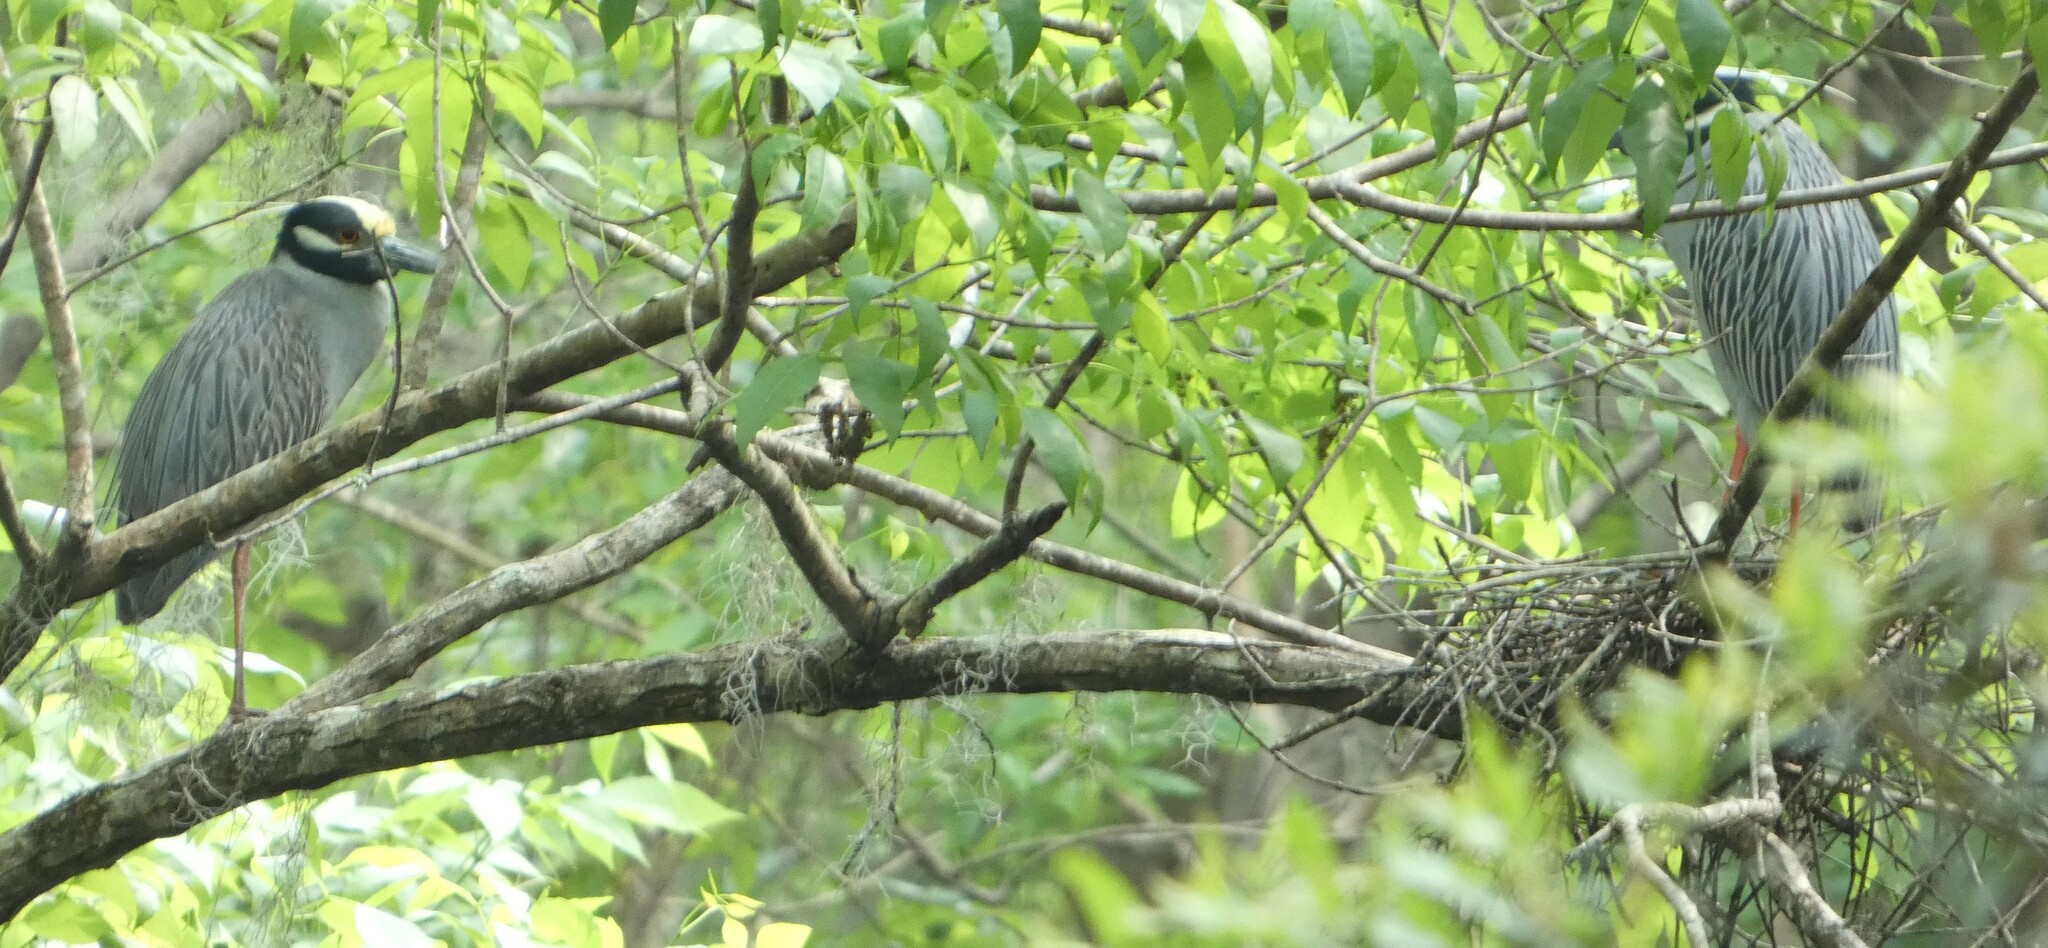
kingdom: Animalia
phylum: Chordata
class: Aves
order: Pelecaniformes
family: Ardeidae
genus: Nyctanassa
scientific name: Nyctanassa violacea
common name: Yellow-crowned night heron
